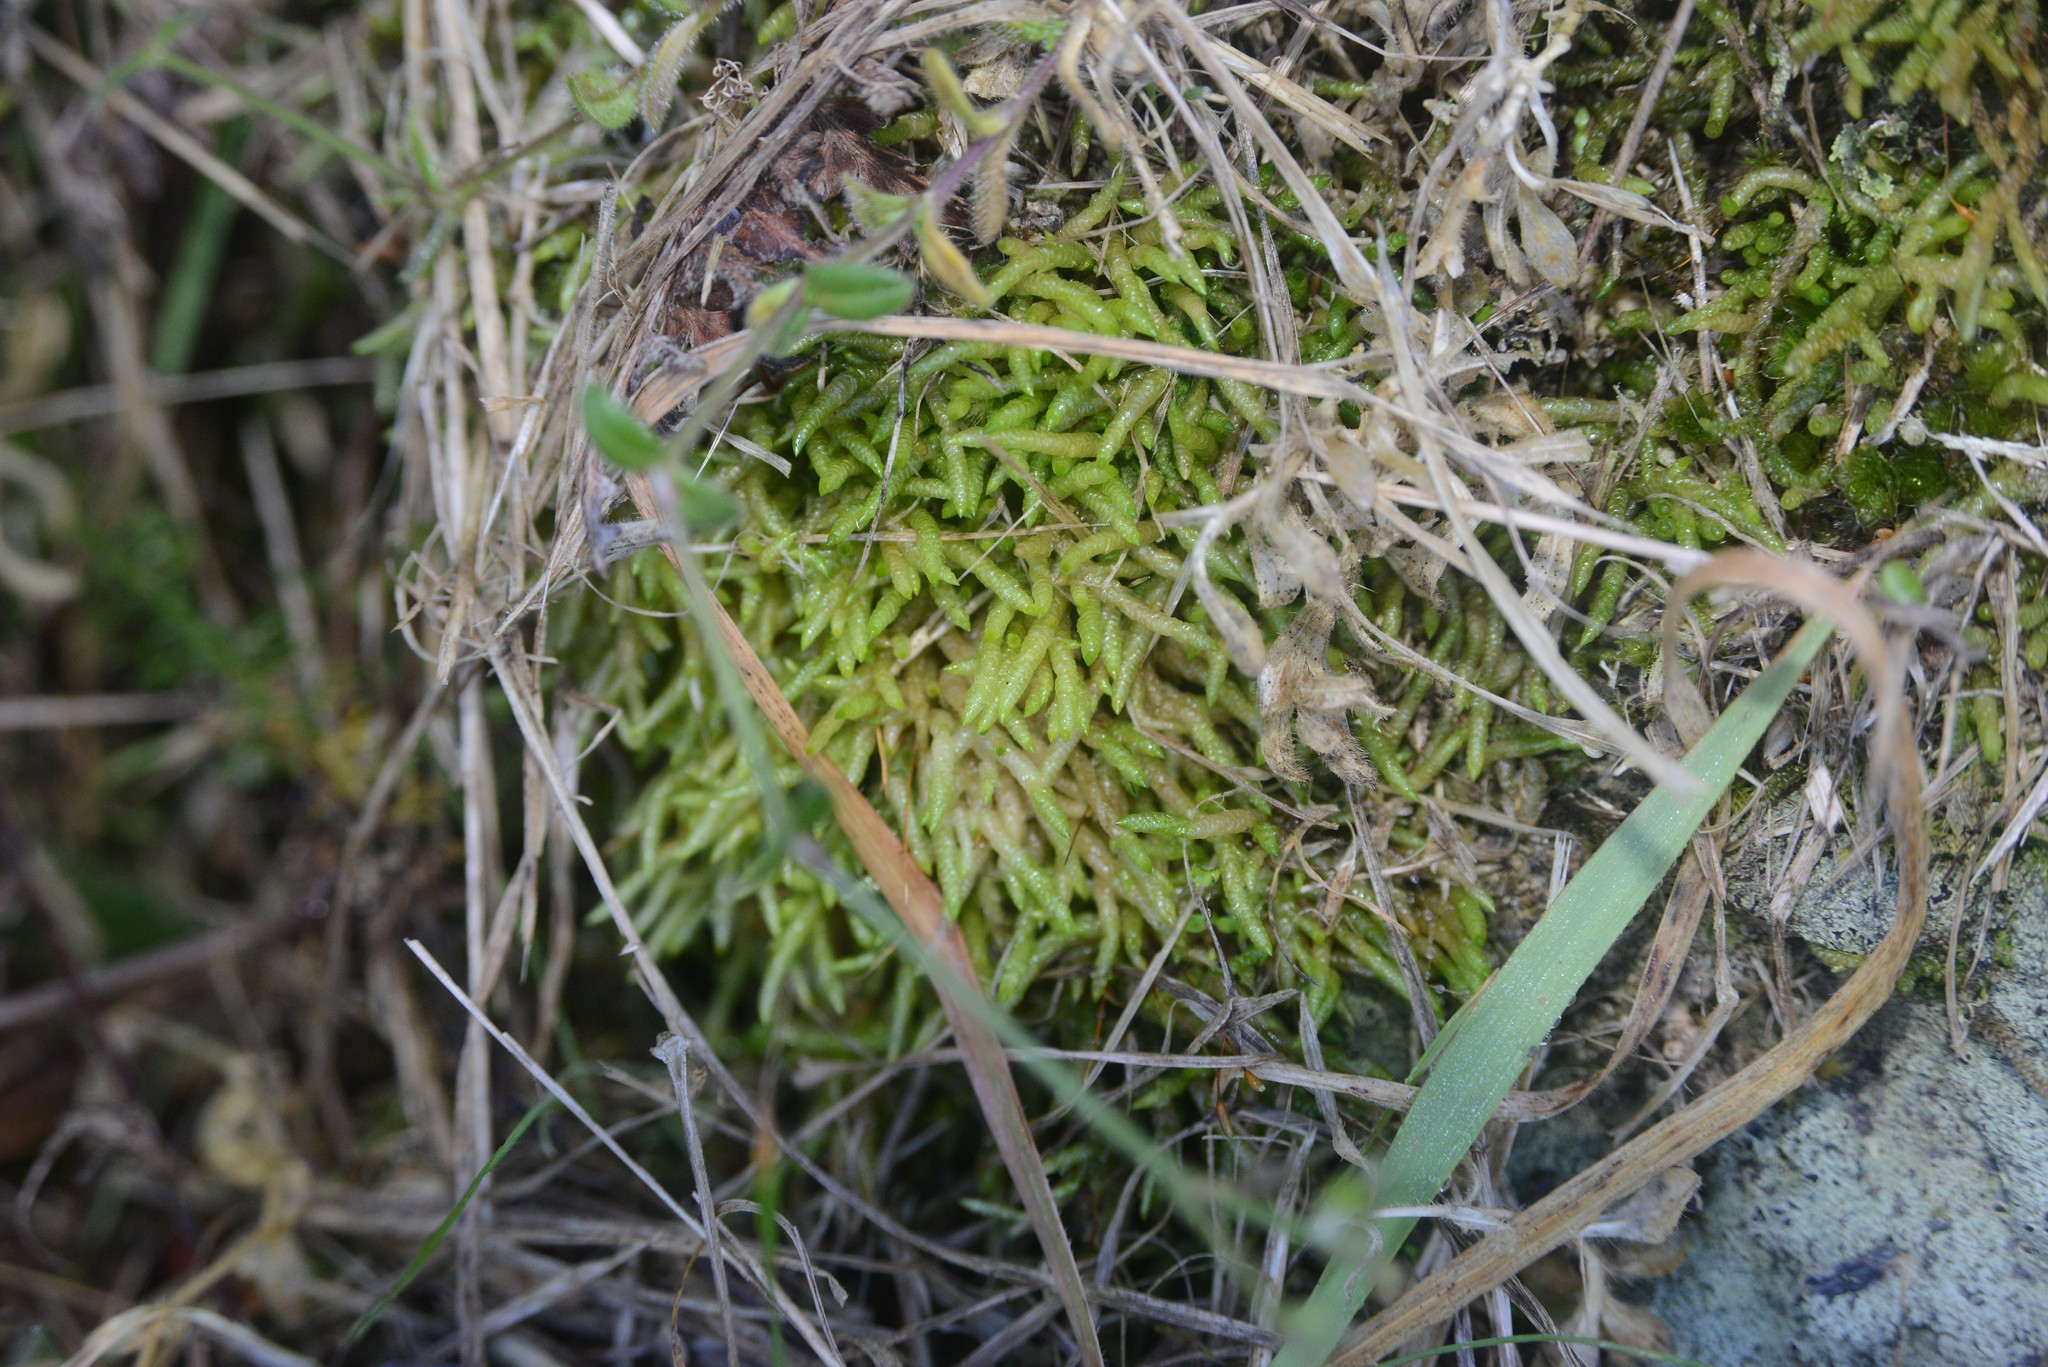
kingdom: Plantae
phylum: Bryophyta
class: Bryopsida
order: Hypnales
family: Acrocladiaceae
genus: Acrocladium
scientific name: Acrocladium chlamydophyllum
